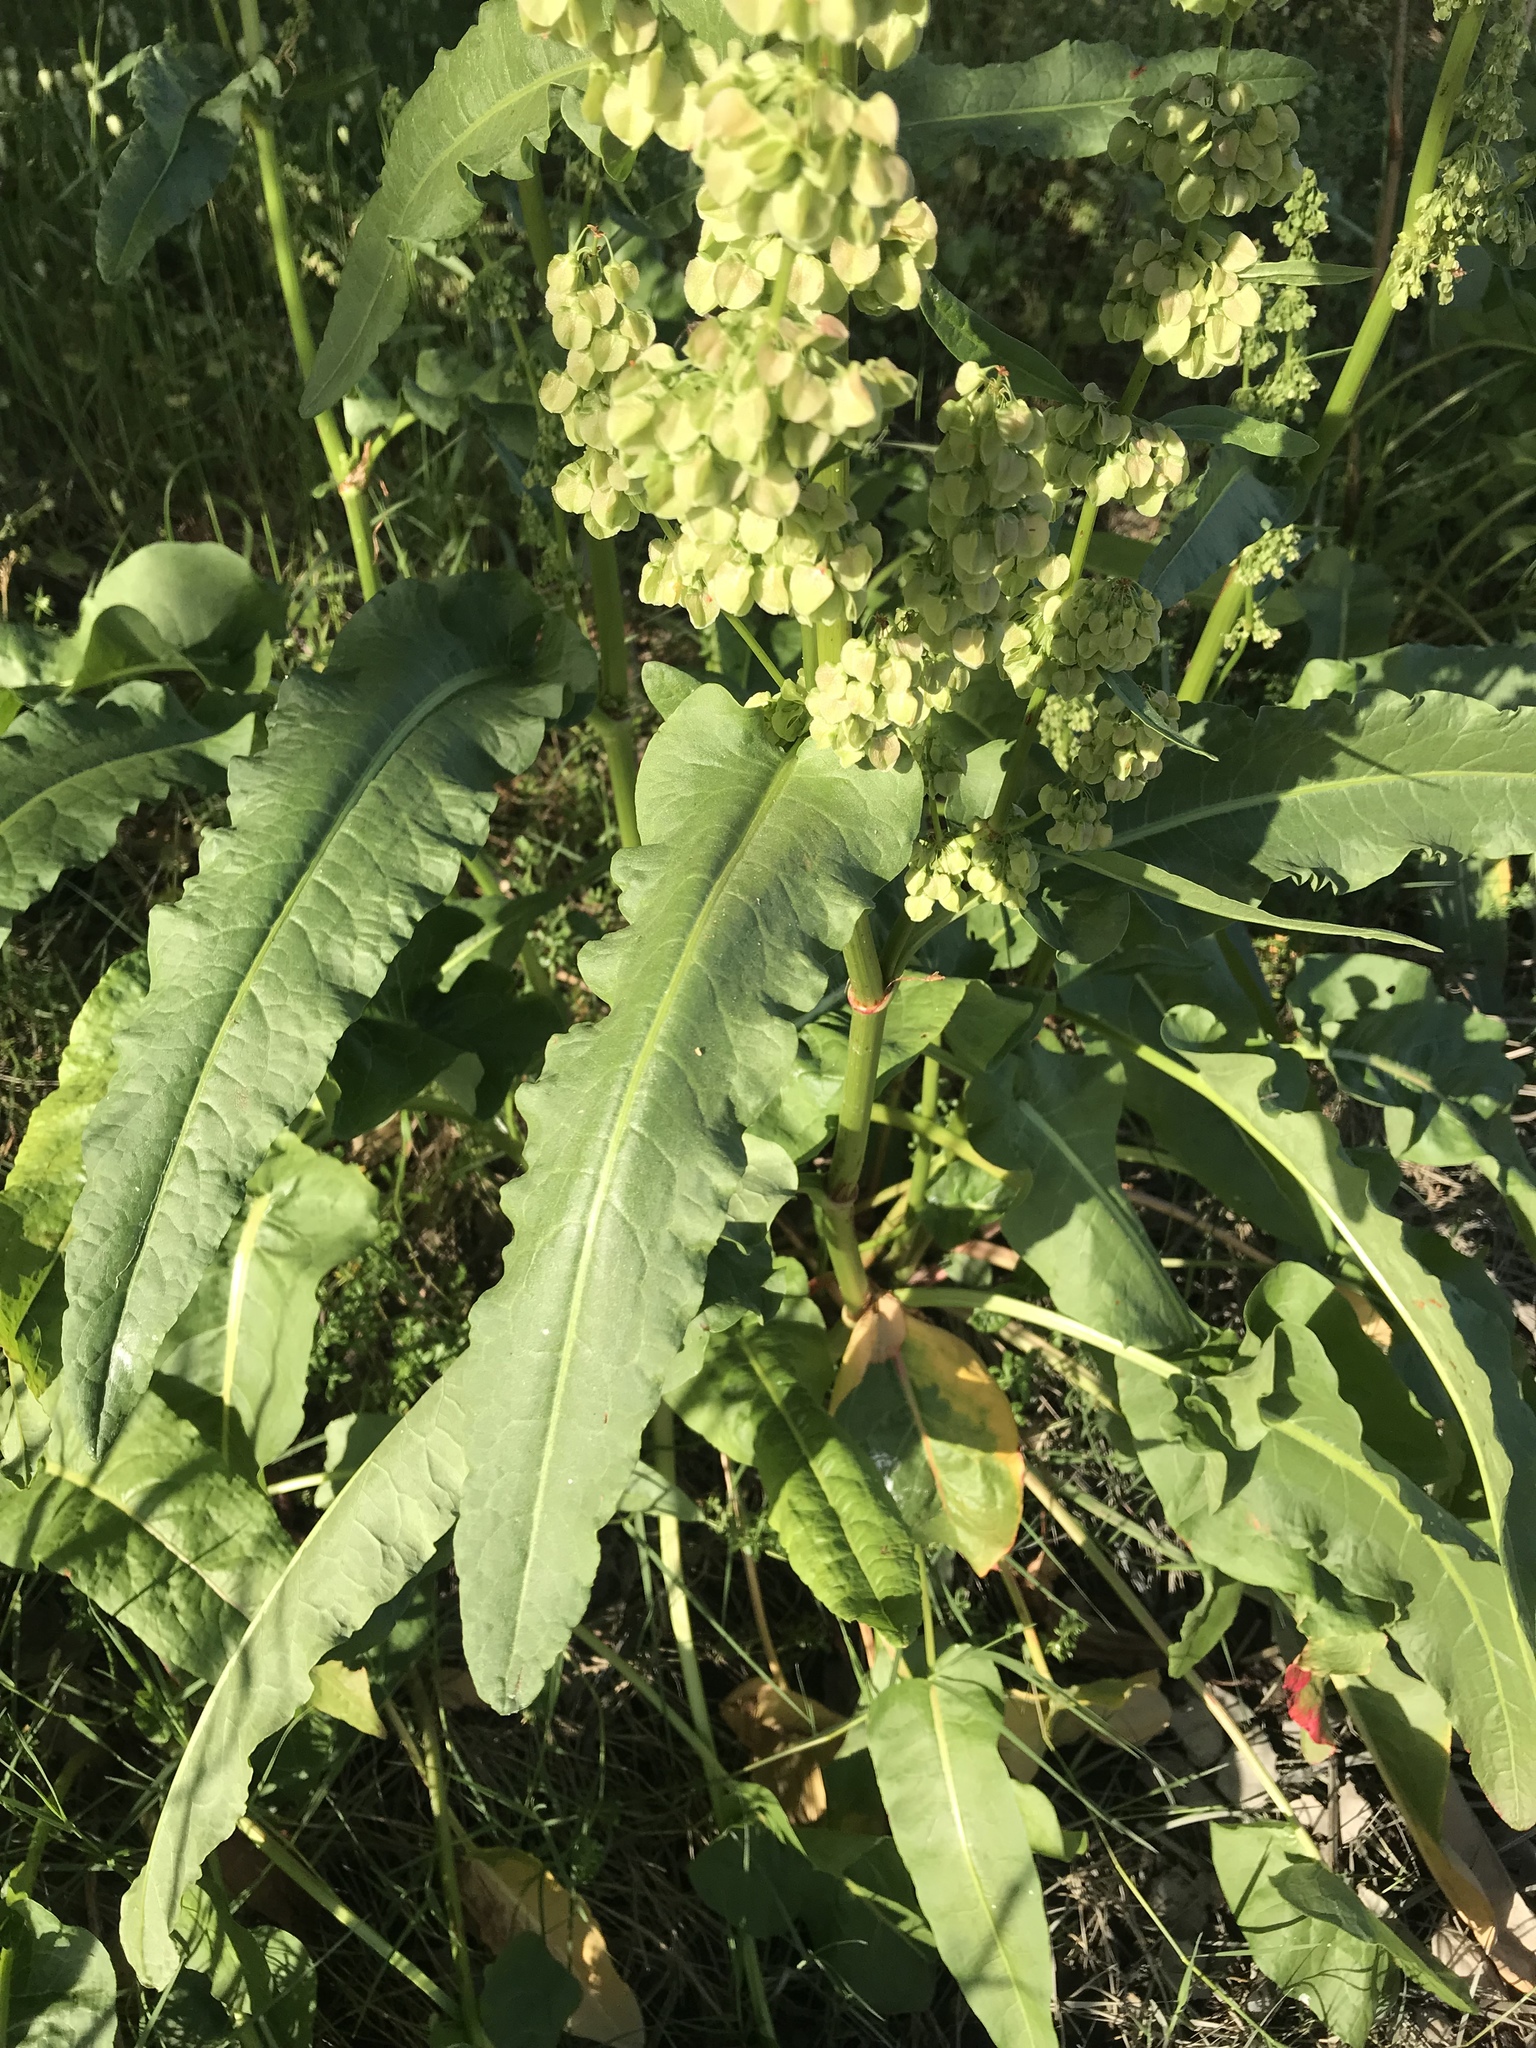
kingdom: Plantae
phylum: Tracheophyta
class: Magnoliopsida
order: Caryophyllales
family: Polygonaceae
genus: Rumex
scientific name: Rumex crispus
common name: Curled dock
